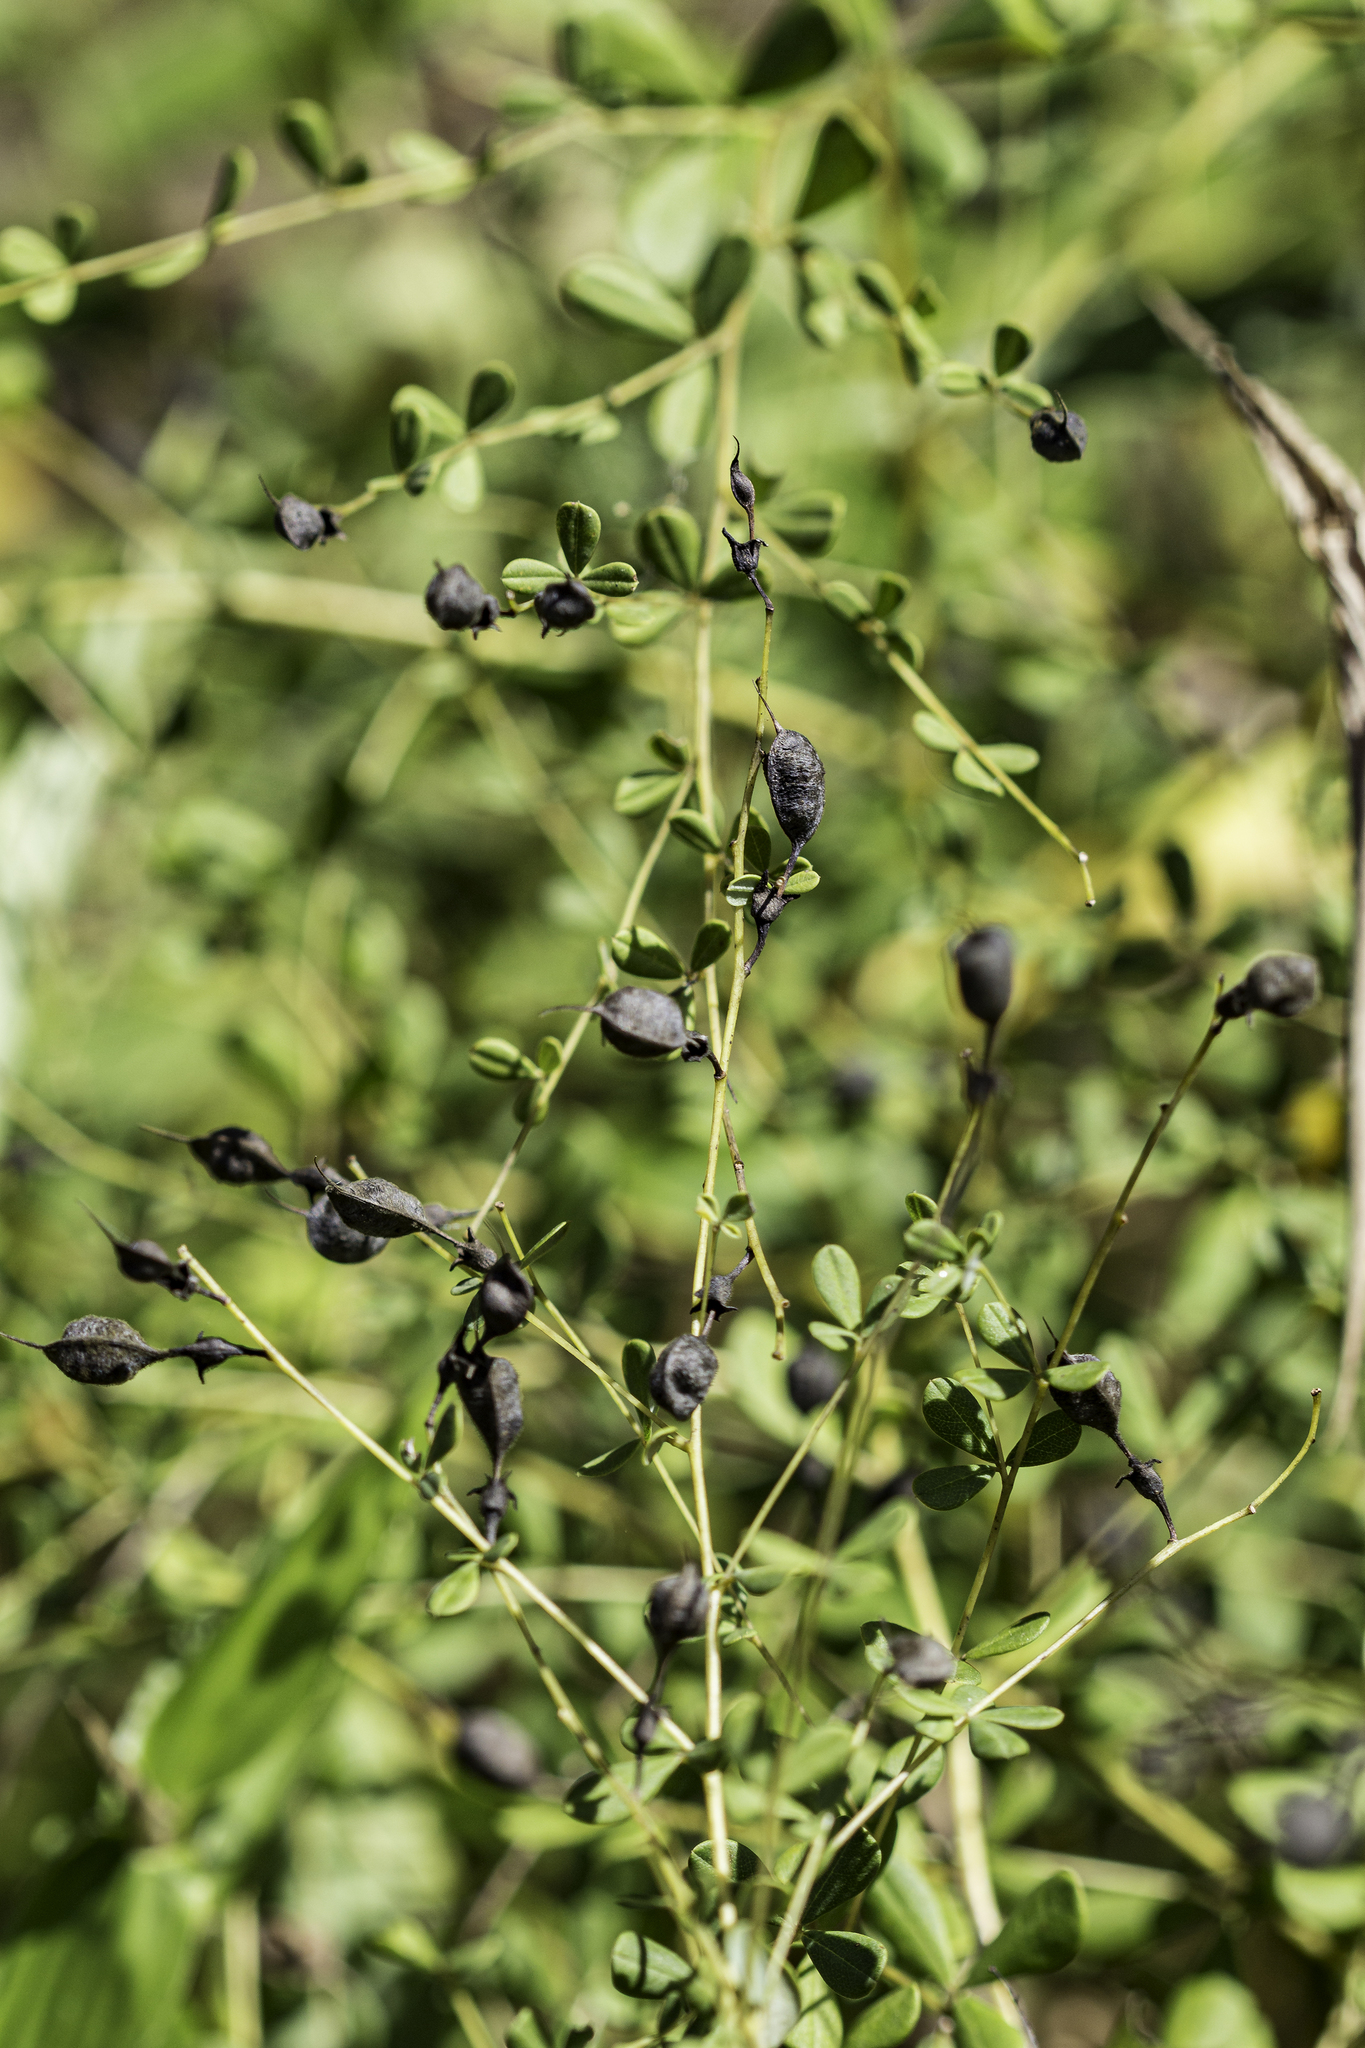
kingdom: Plantae
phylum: Tracheophyta
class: Magnoliopsida
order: Fabales
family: Fabaceae
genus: Baptisia
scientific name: Baptisia tinctoria
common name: Wild indigo
